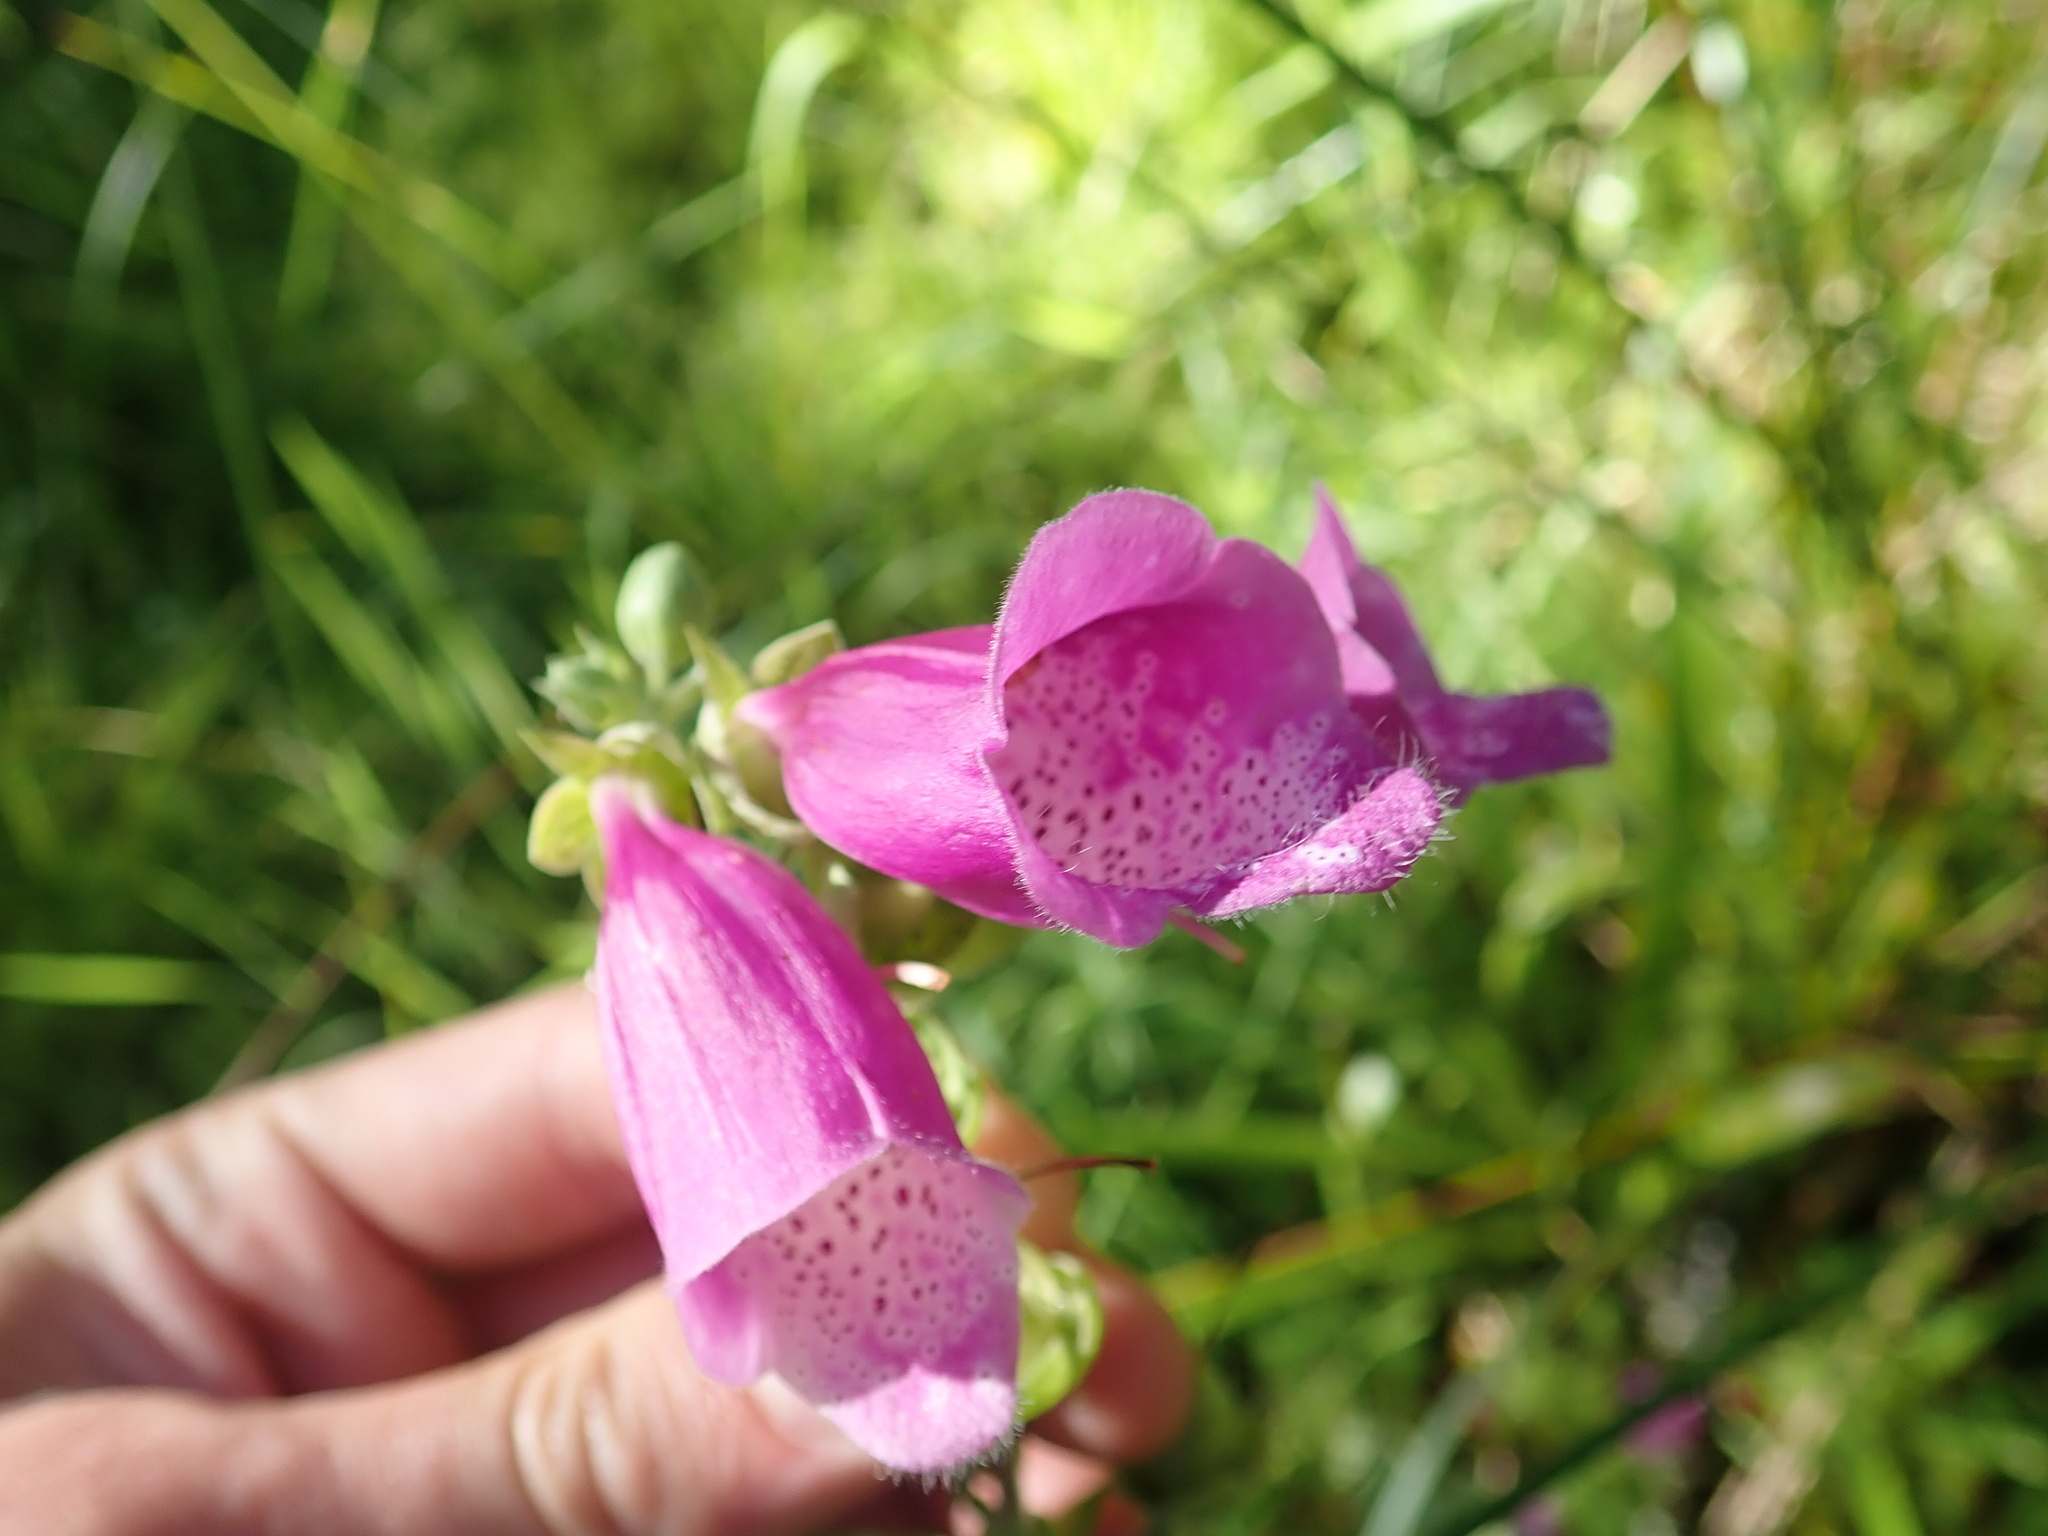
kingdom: Plantae
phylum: Tracheophyta
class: Magnoliopsida
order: Lamiales
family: Plantaginaceae
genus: Digitalis
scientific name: Digitalis purpurea
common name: Foxglove
